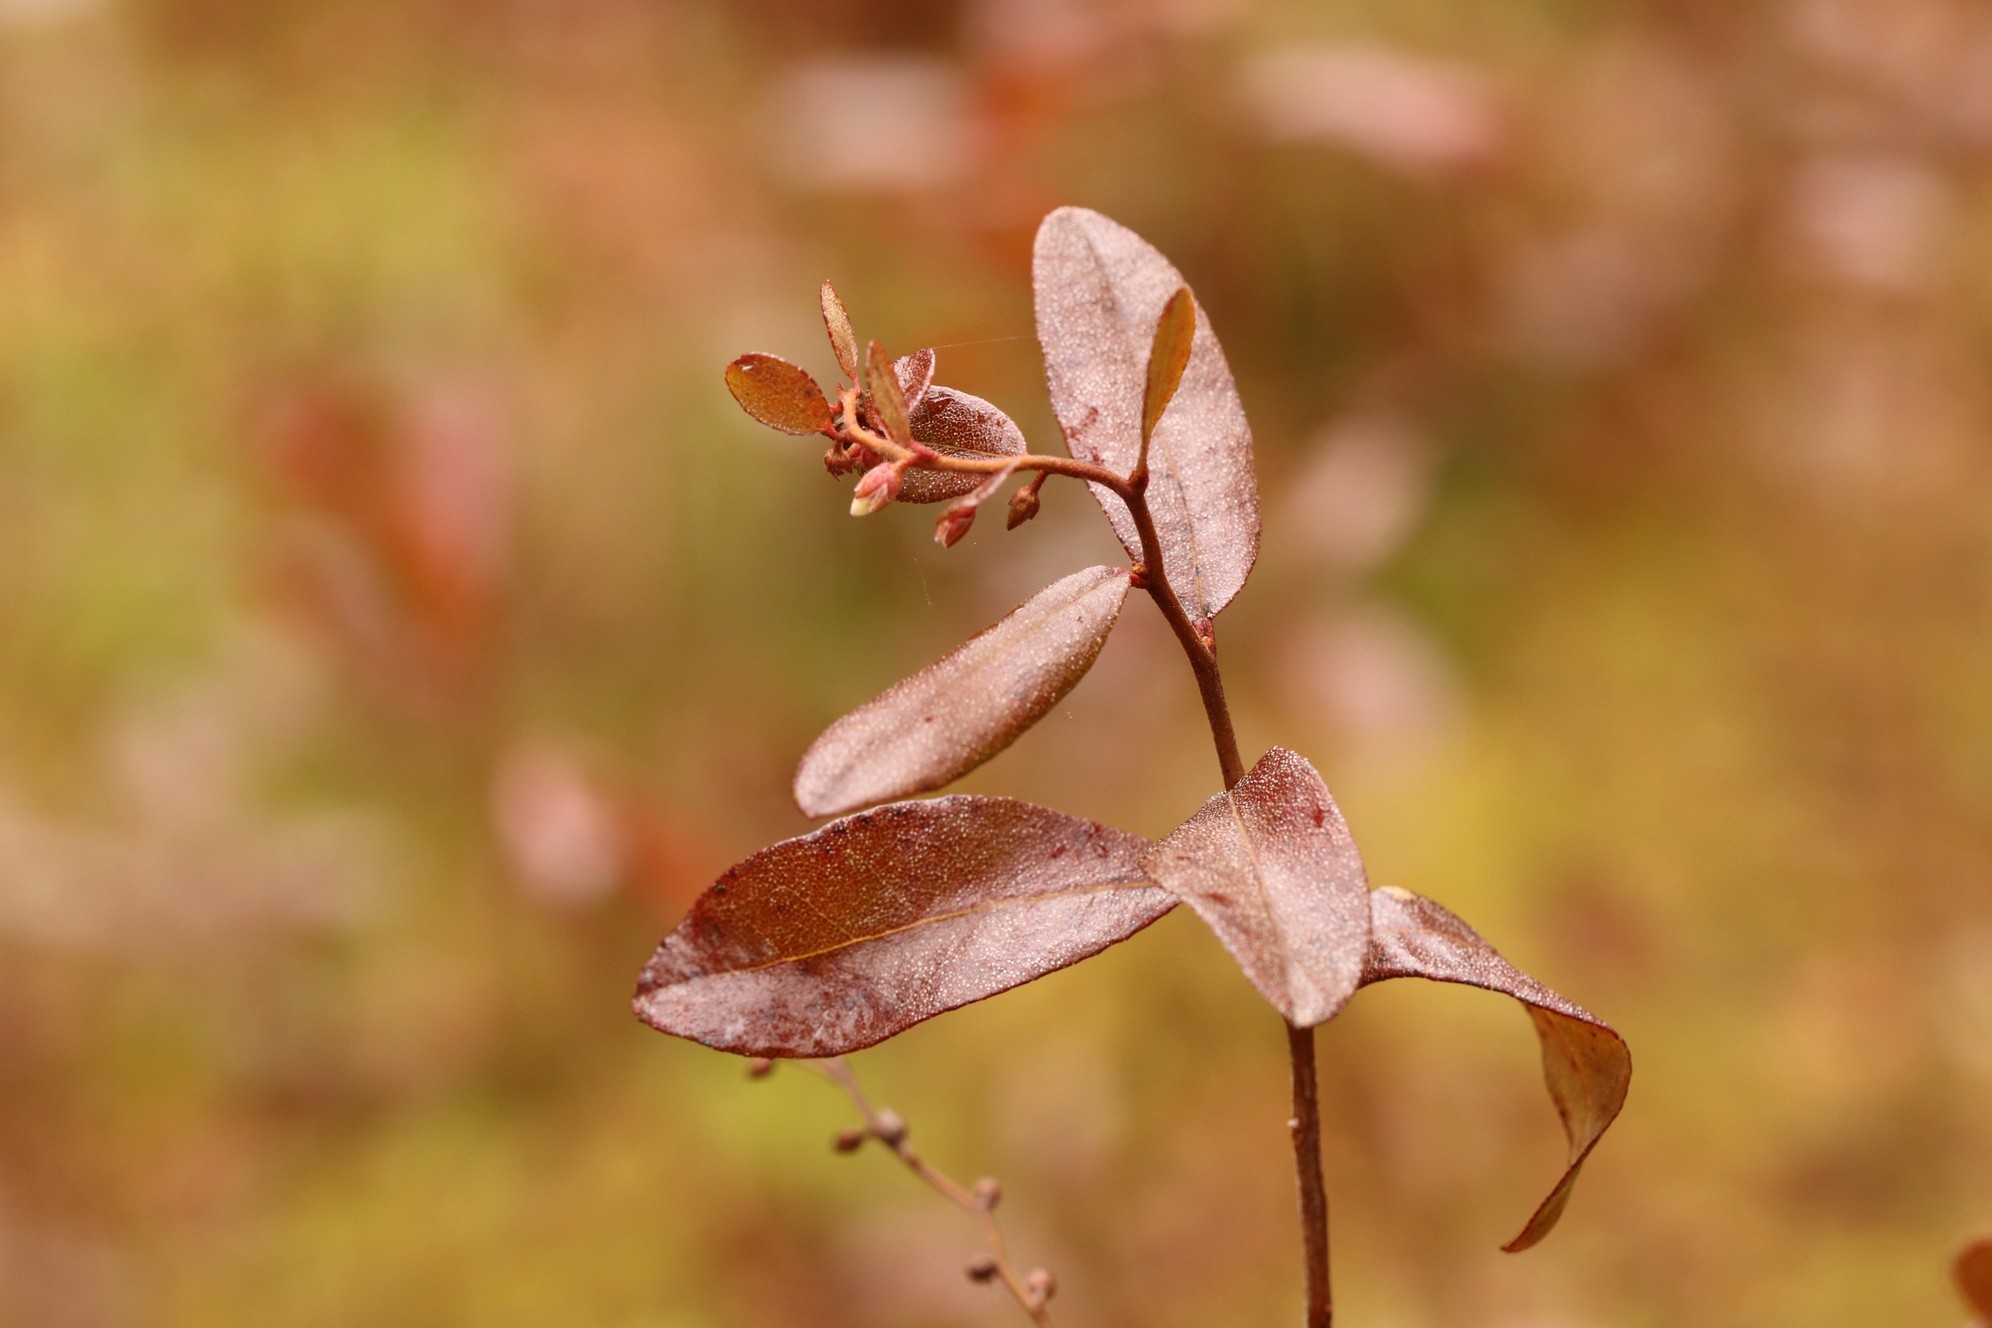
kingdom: Plantae
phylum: Tracheophyta
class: Magnoliopsida
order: Ericales
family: Ericaceae
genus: Chamaedaphne
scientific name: Chamaedaphne calyculata
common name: Leatherleaf
